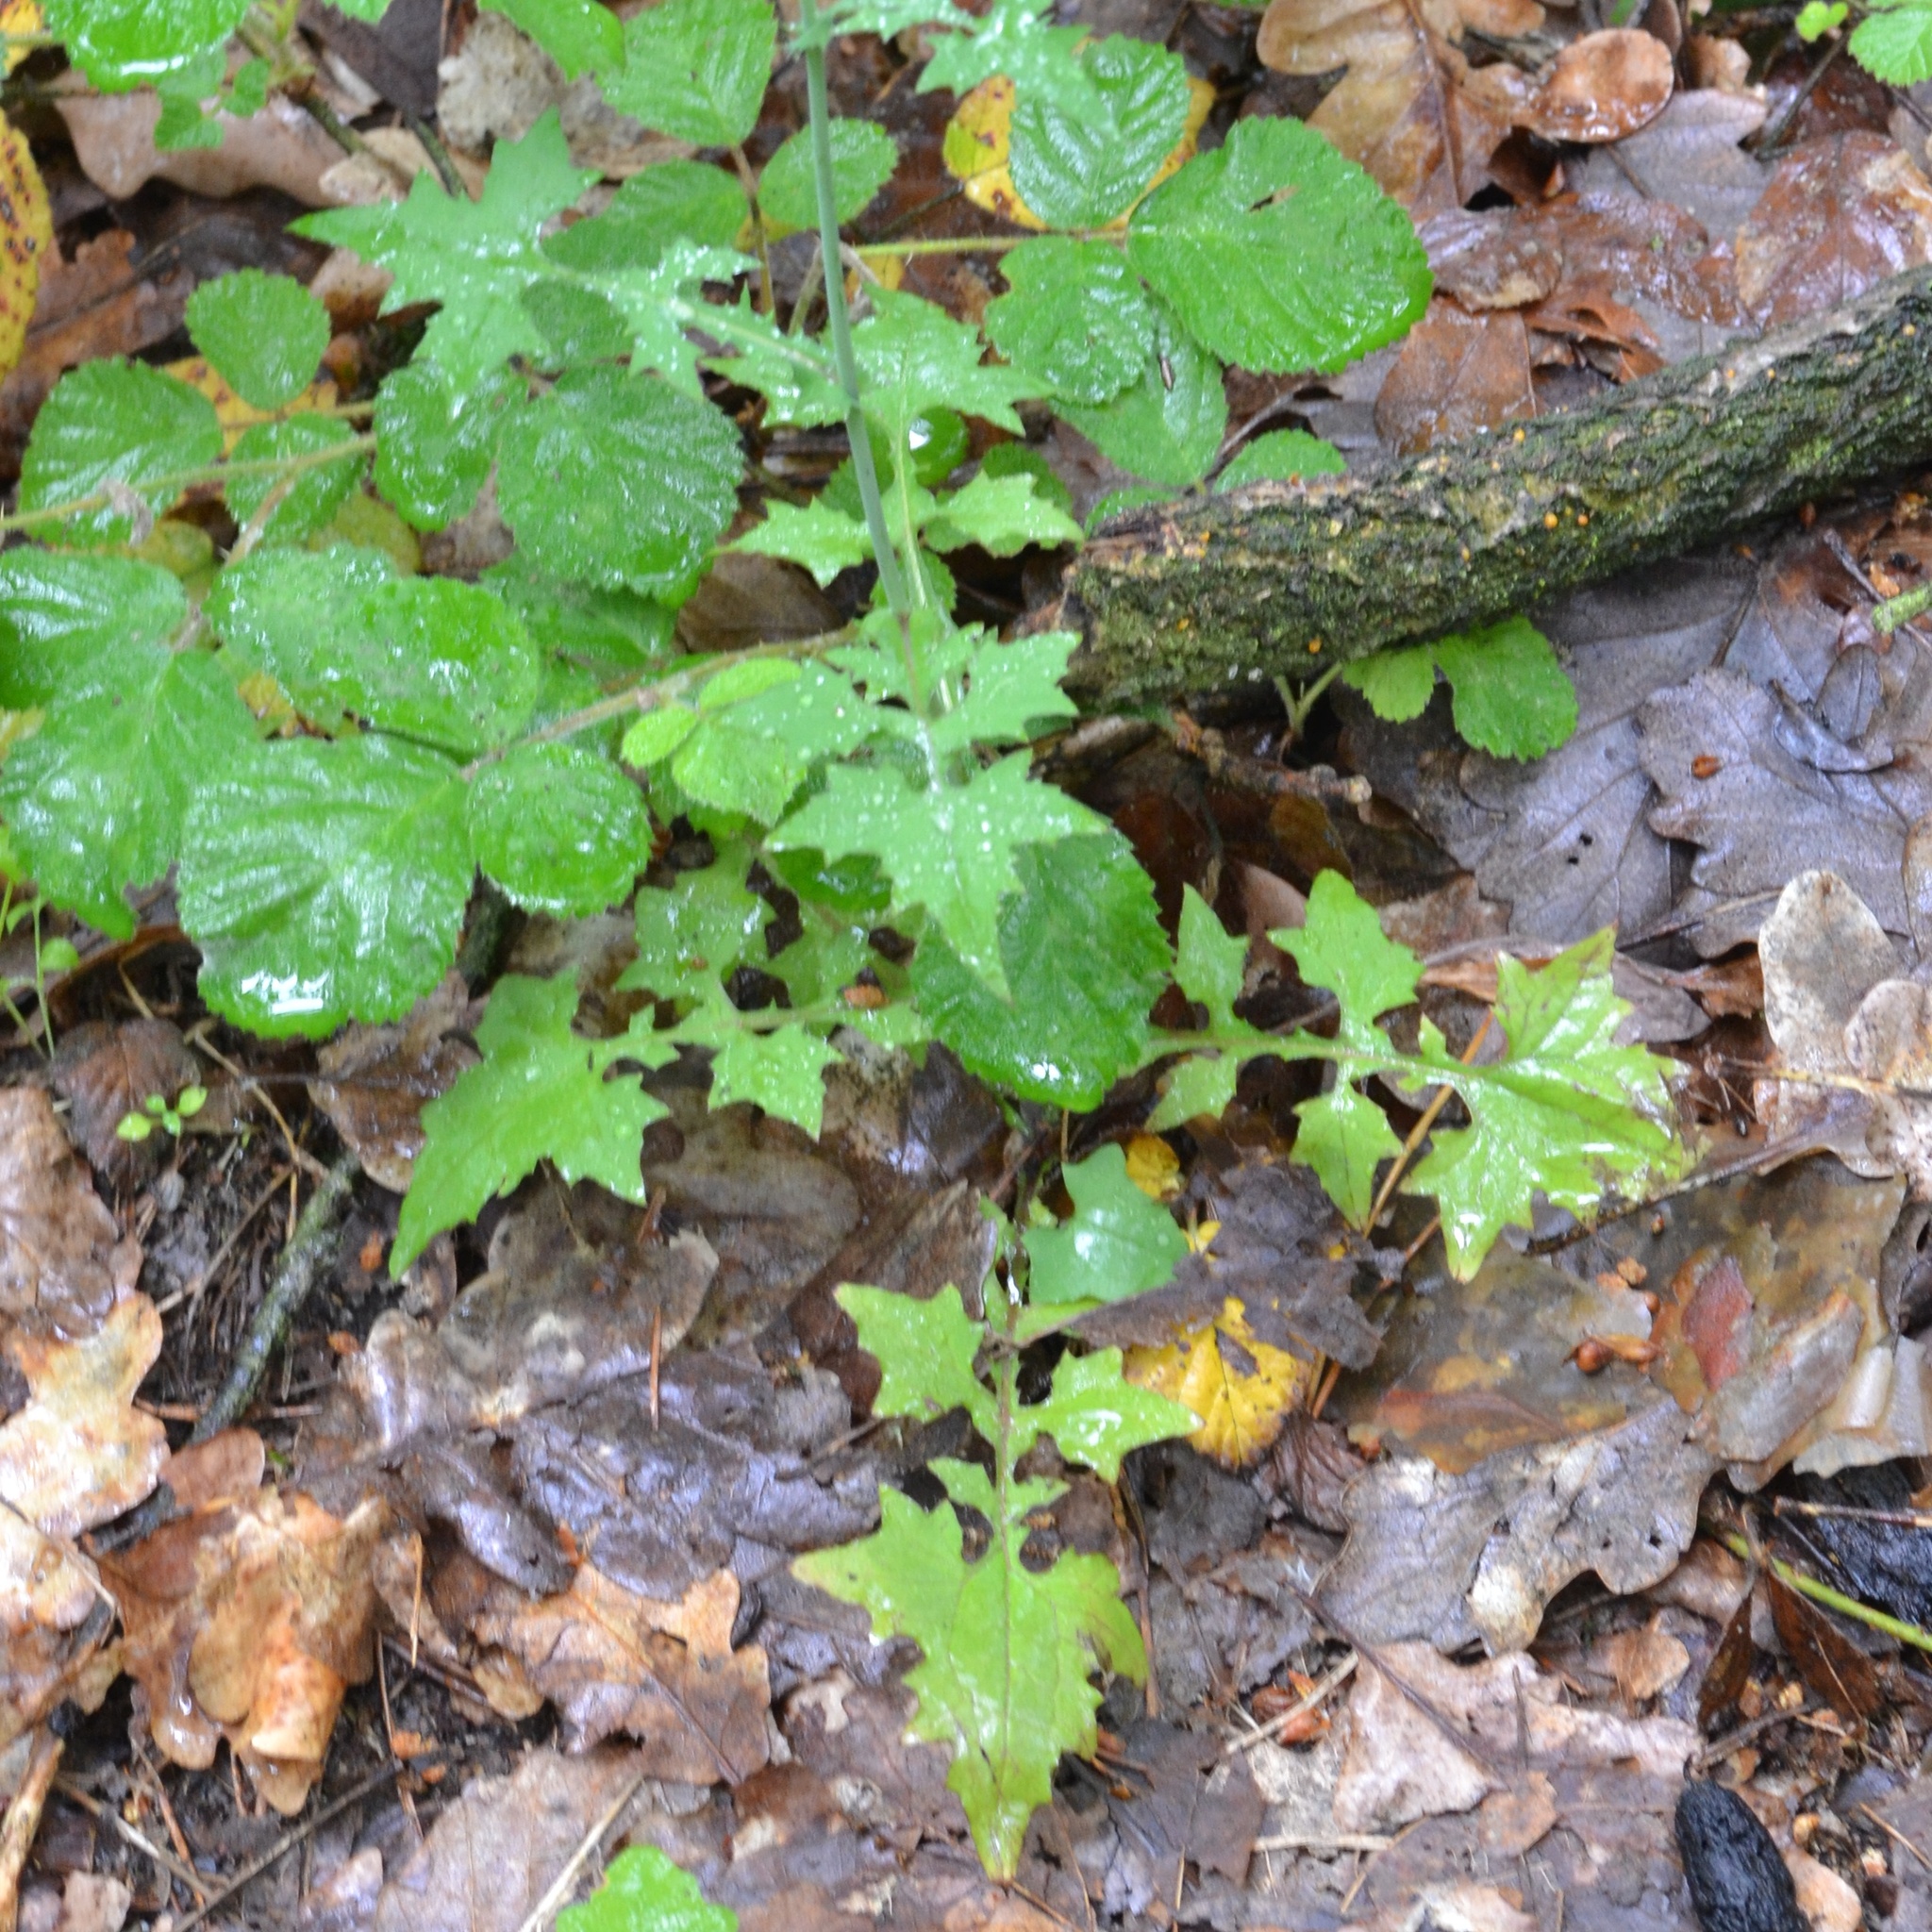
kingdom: Plantae
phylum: Tracheophyta
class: Magnoliopsida
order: Asterales
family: Asteraceae
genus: Mycelis
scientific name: Mycelis muralis
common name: Wall lettuce
